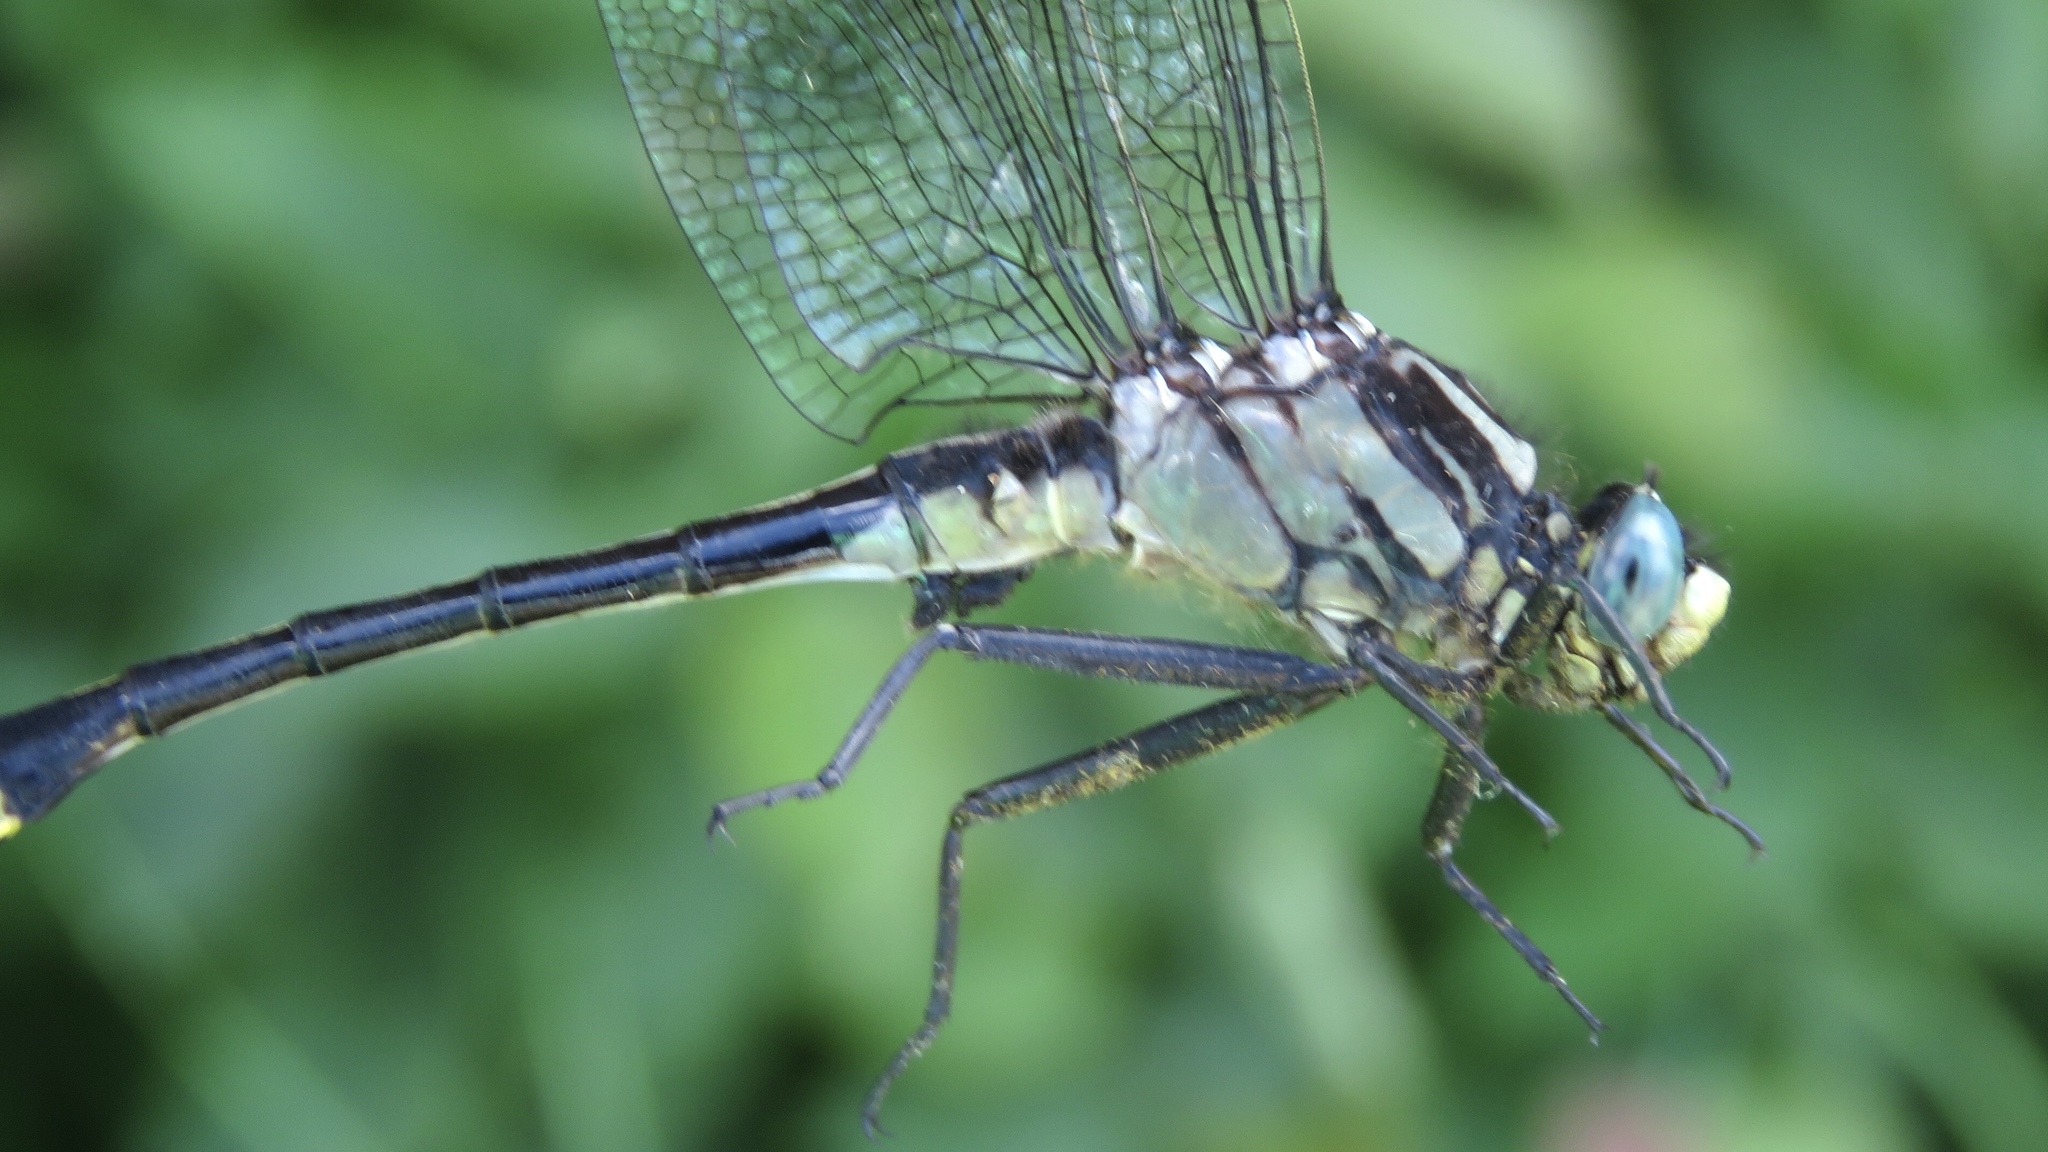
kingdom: Animalia
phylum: Arthropoda
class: Insecta
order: Odonata
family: Gomphidae
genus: Gomphurus
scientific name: Gomphurus fraternus
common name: Midland clubtail
